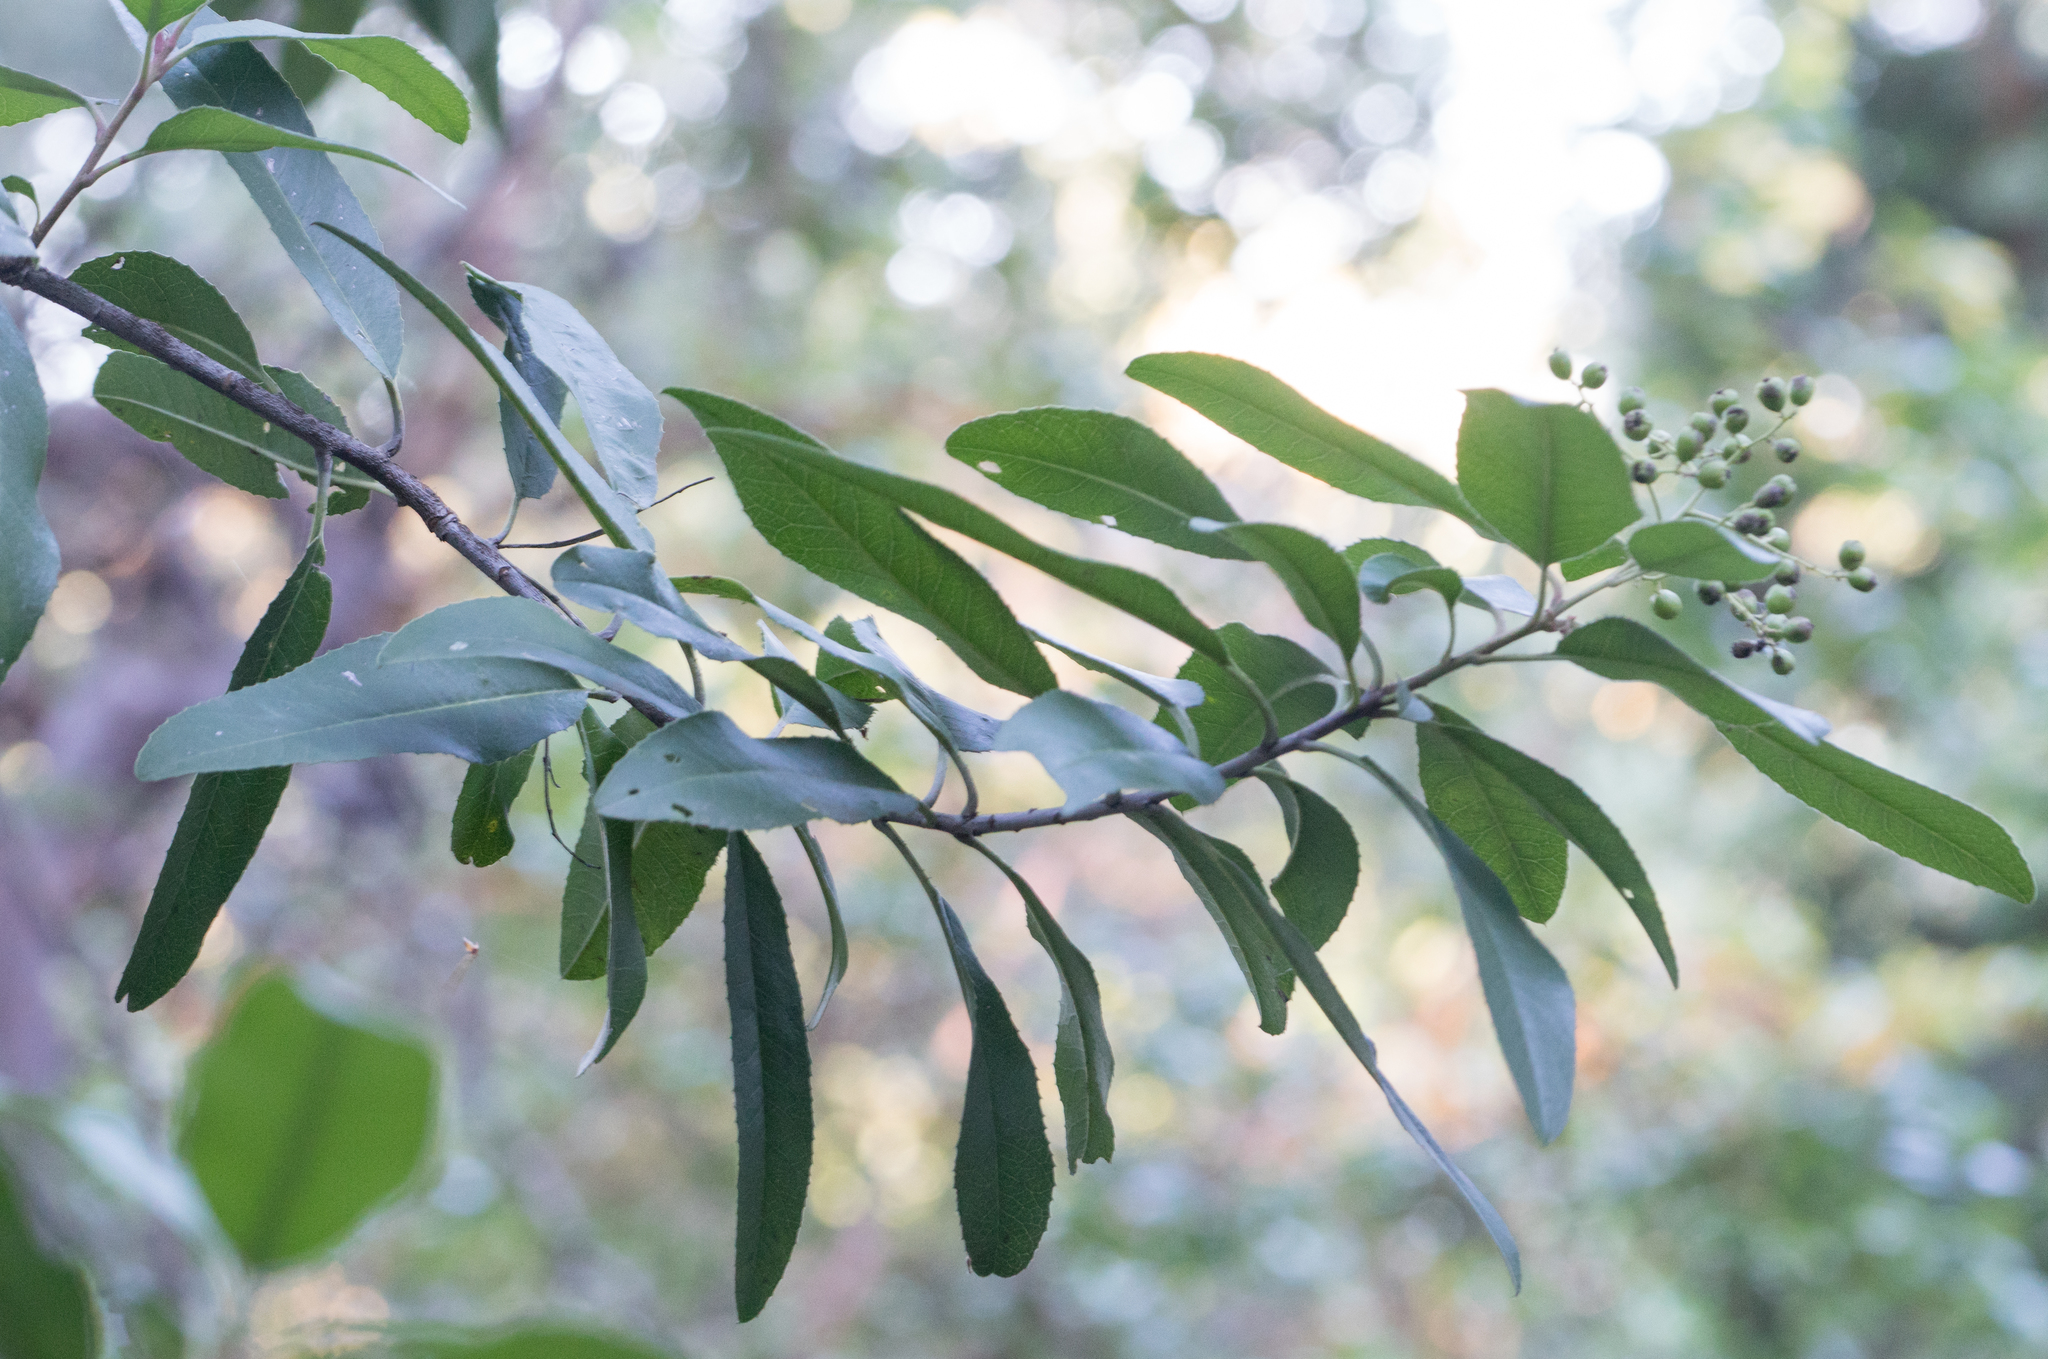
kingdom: Plantae
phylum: Tracheophyta
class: Magnoliopsida
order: Rosales
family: Rosaceae
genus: Heteromeles
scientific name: Heteromeles arbutifolia
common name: California-holly
